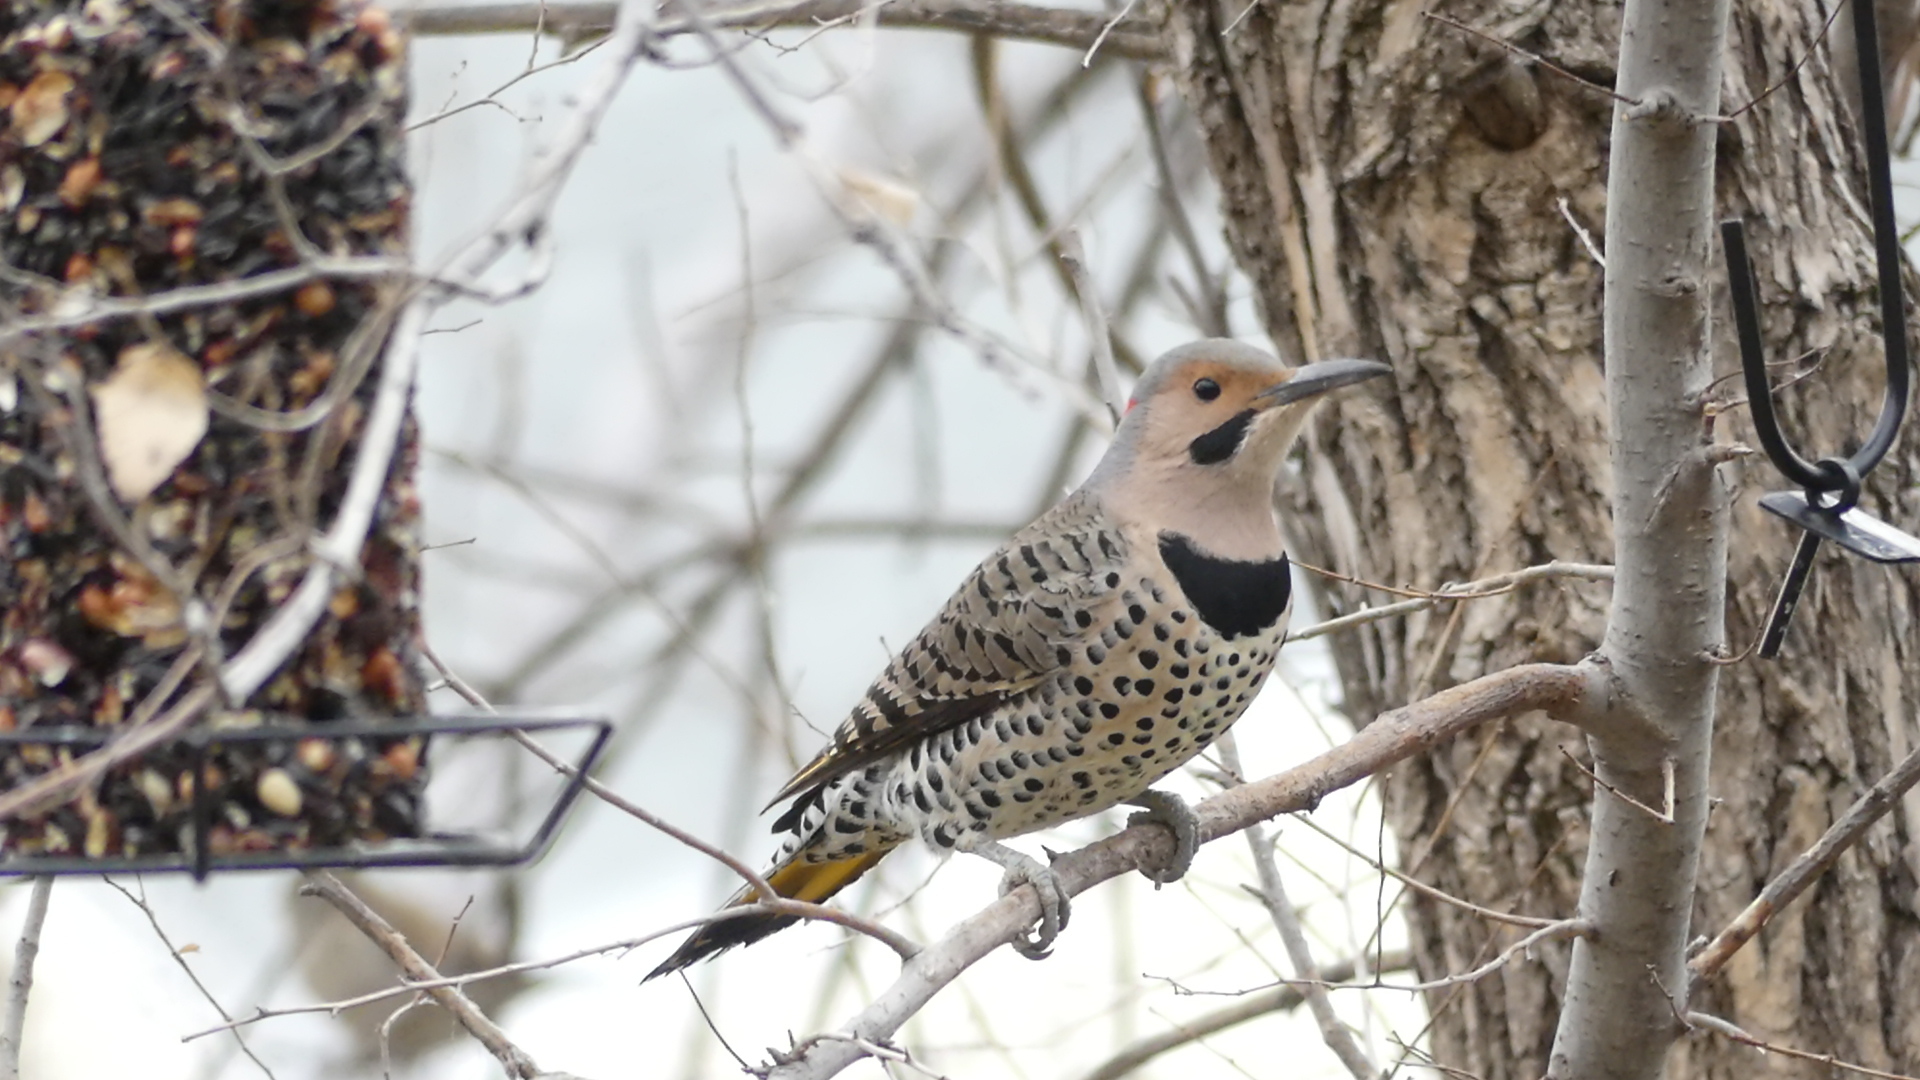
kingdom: Animalia
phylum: Chordata
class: Aves
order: Piciformes
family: Picidae
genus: Colaptes
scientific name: Colaptes auratus
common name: Northern flicker
